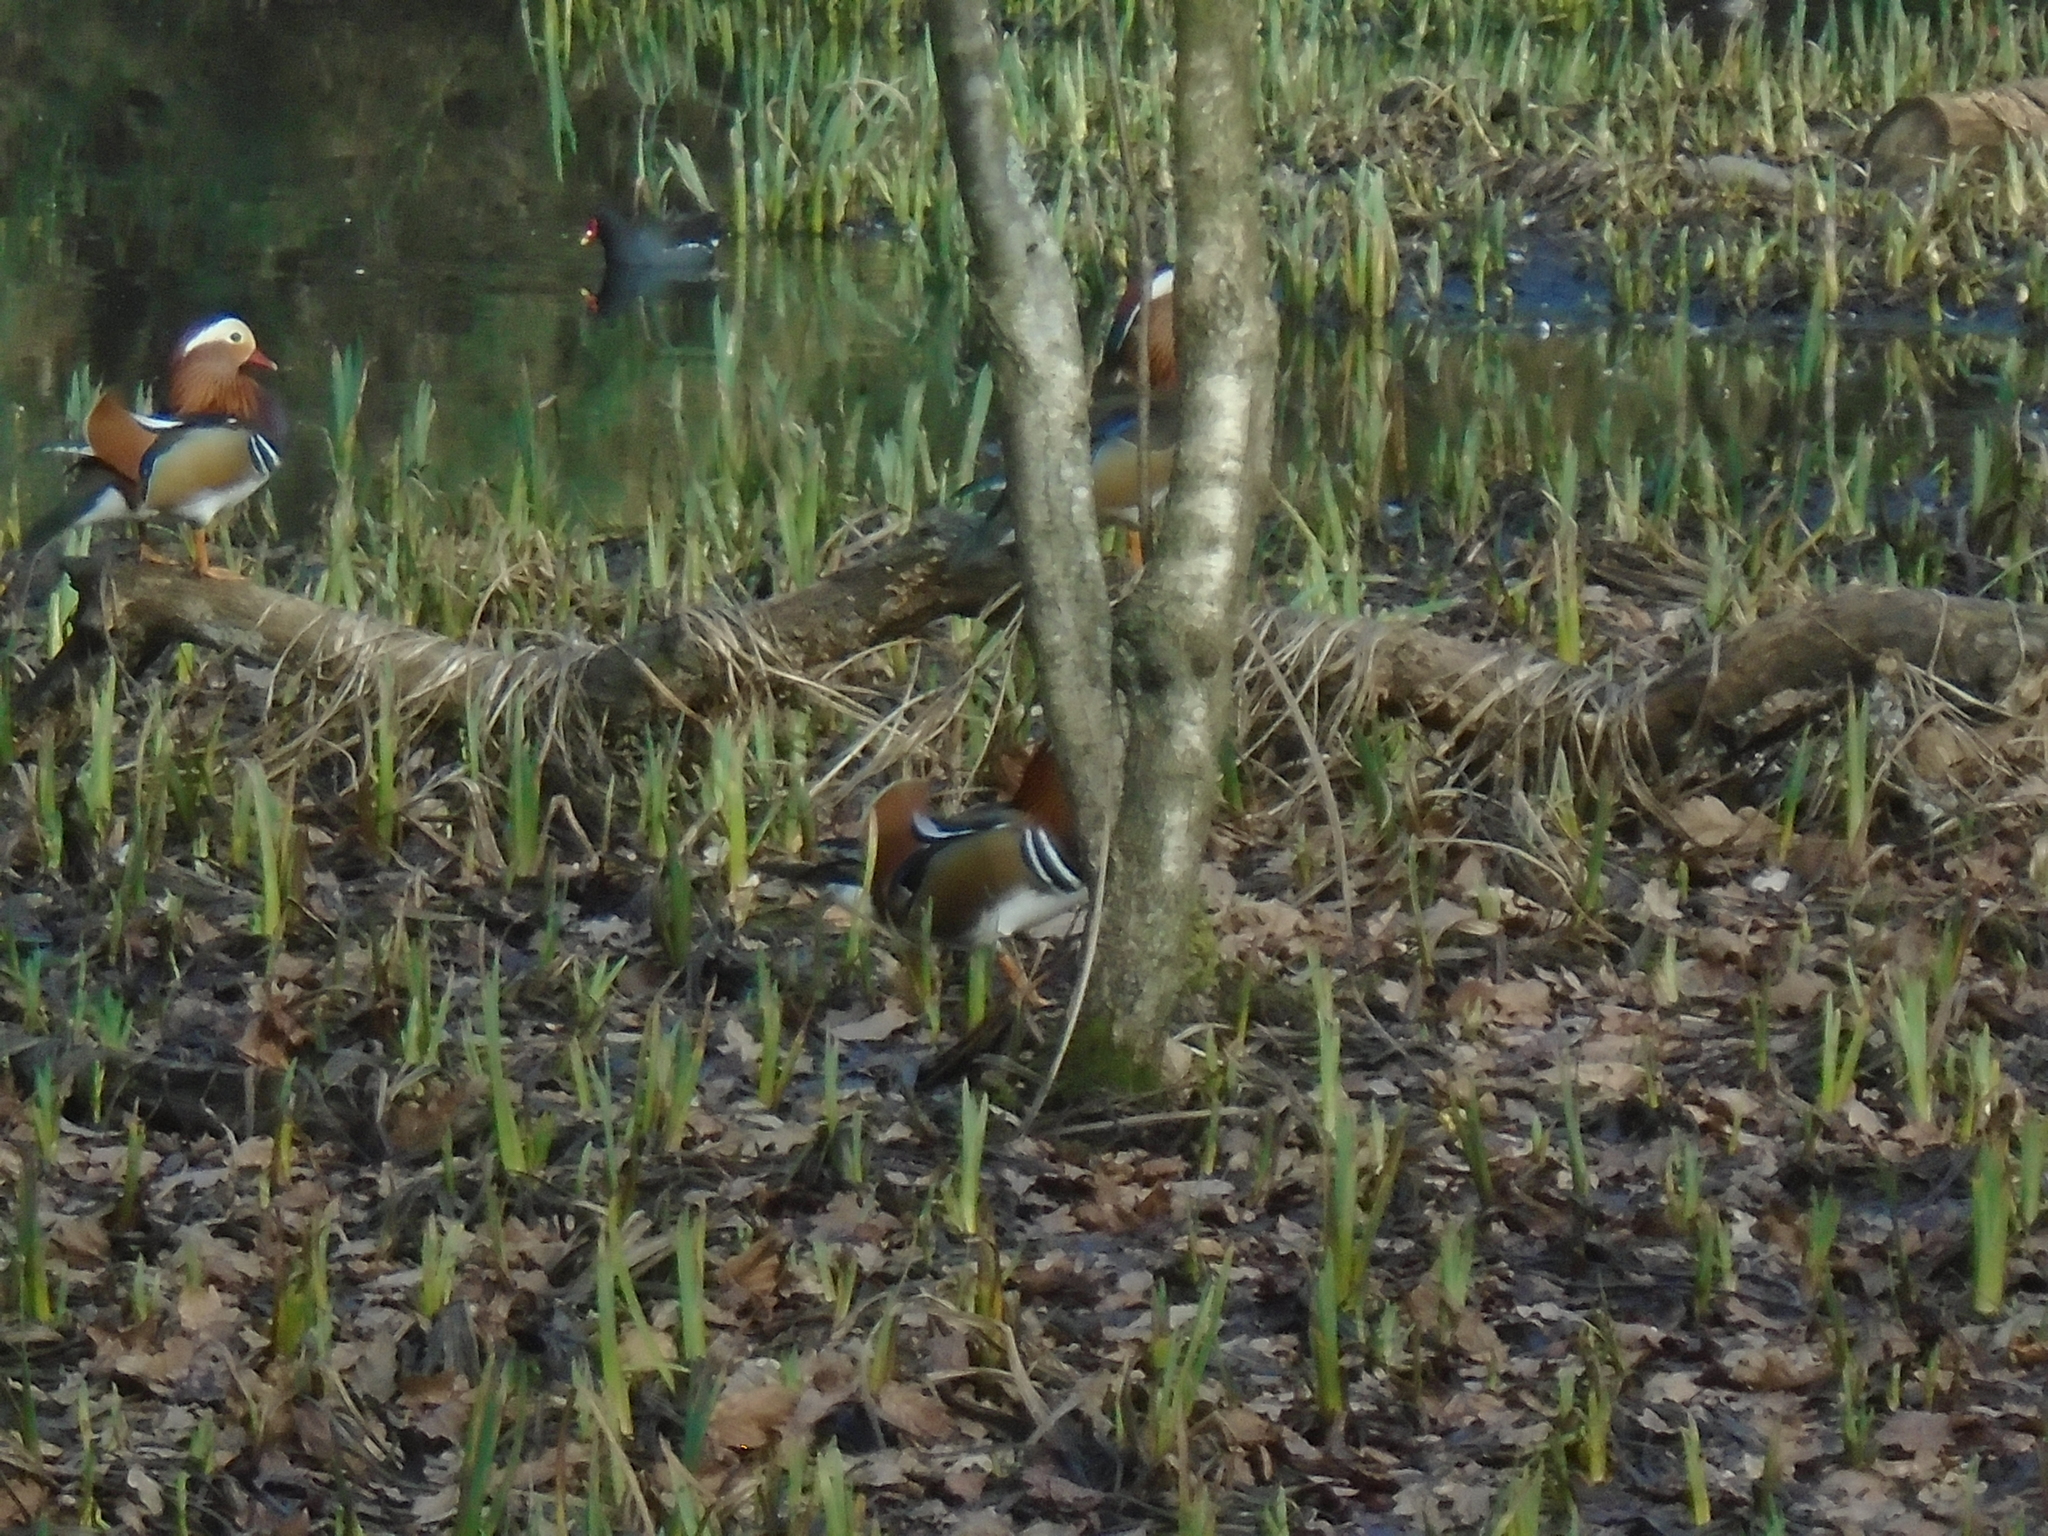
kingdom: Animalia
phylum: Chordata
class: Aves
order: Anseriformes
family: Anatidae
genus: Aix
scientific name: Aix galericulata
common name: Mandarin duck
